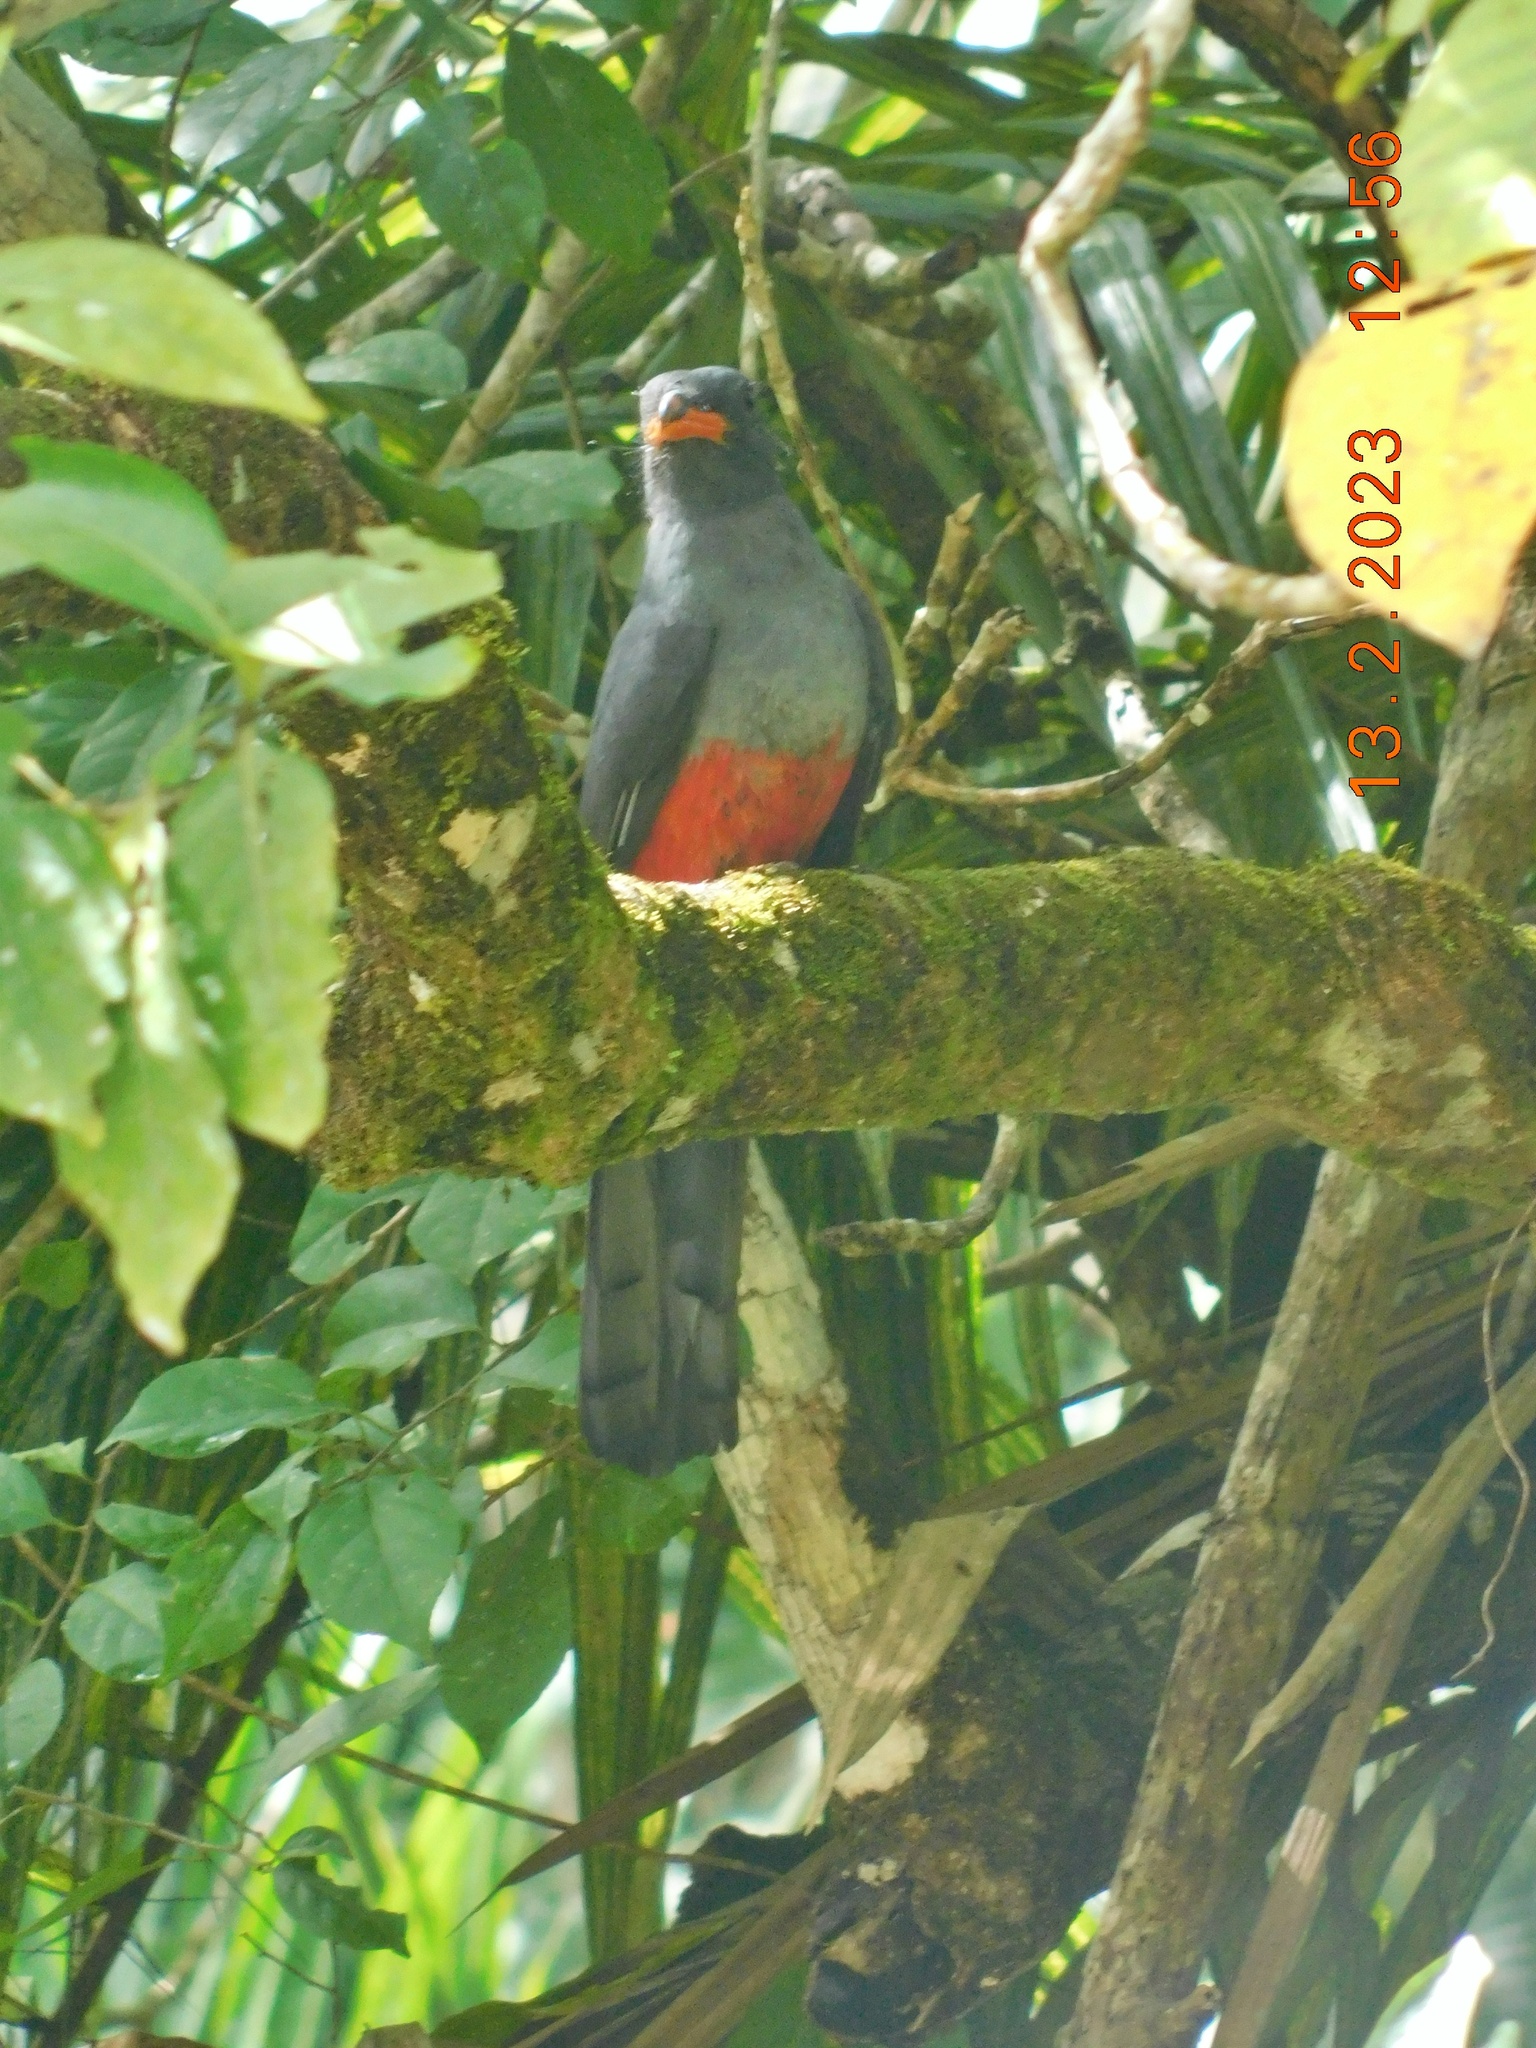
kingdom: Animalia
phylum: Chordata
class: Aves
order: Trogoniformes
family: Trogonidae
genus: Trogon
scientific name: Trogon massena
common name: Slaty-tailed trogon
